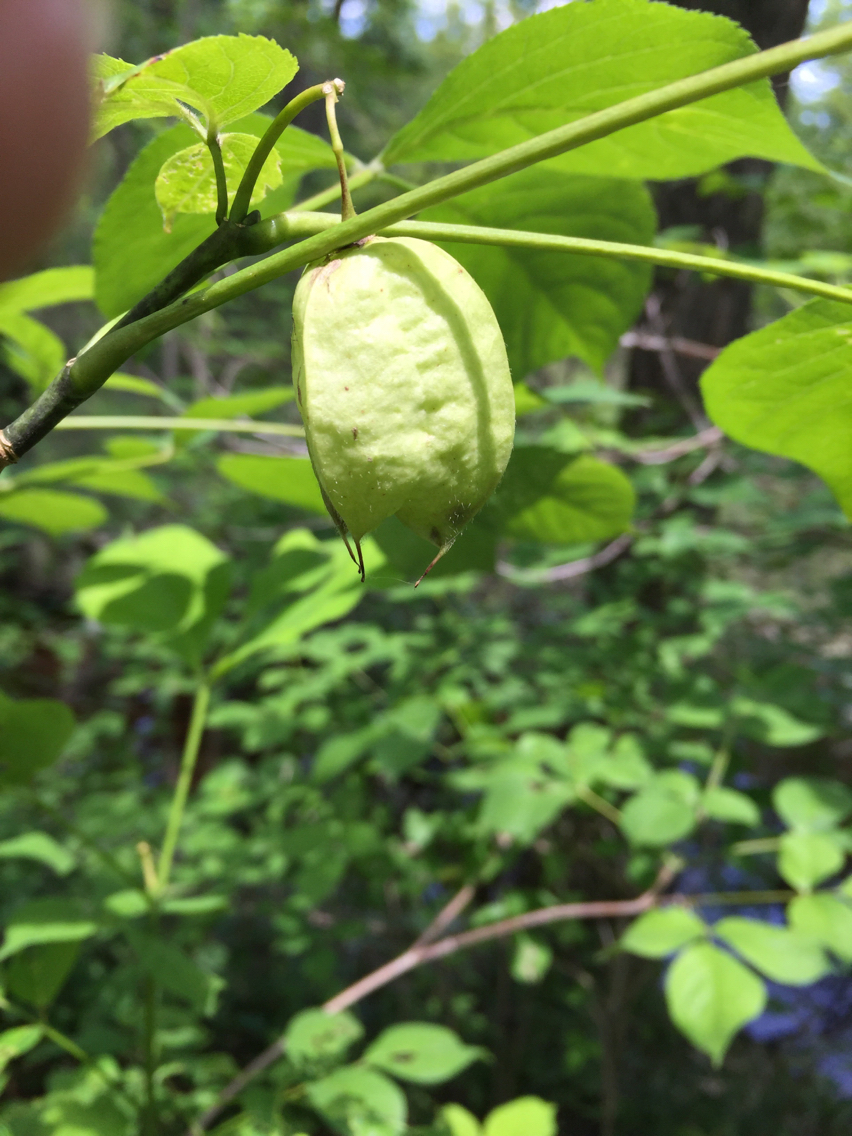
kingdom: Plantae
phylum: Tracheophyta
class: Magnoliopsida
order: Crossosomatales
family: Staphyleaceae
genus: Staphylea
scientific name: Staphylea trifolia
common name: American bladdernut
